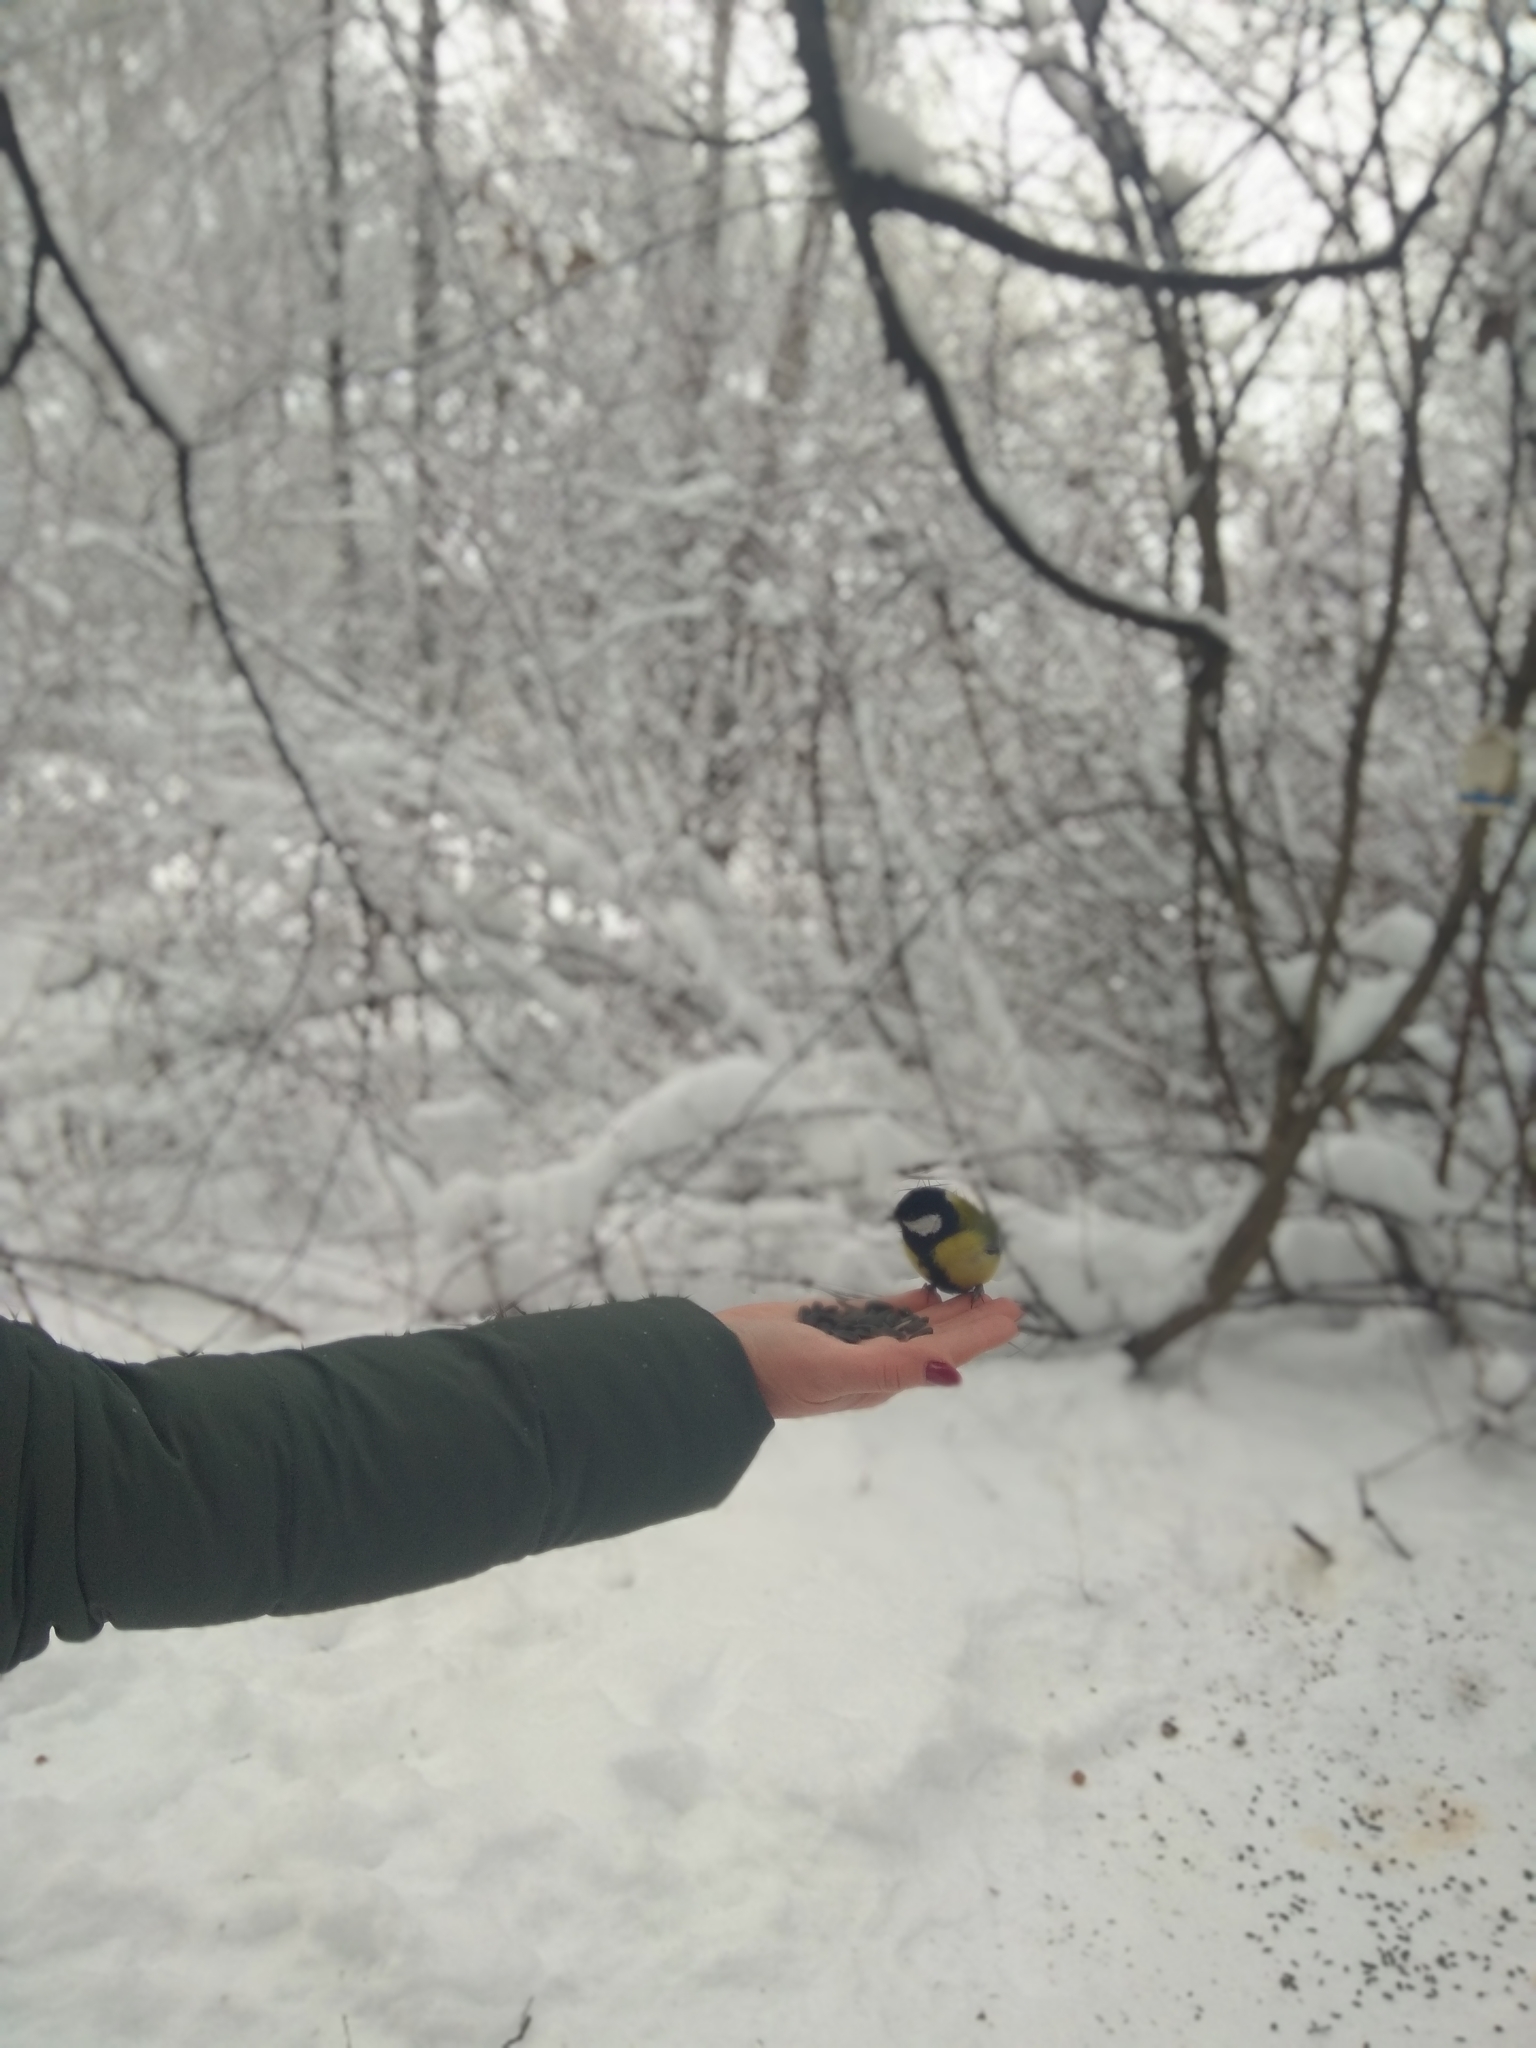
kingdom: Animalia
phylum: Chordata
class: Aves
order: Passeriformes
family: Paridae
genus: Parus
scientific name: Parus major
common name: Great tit
